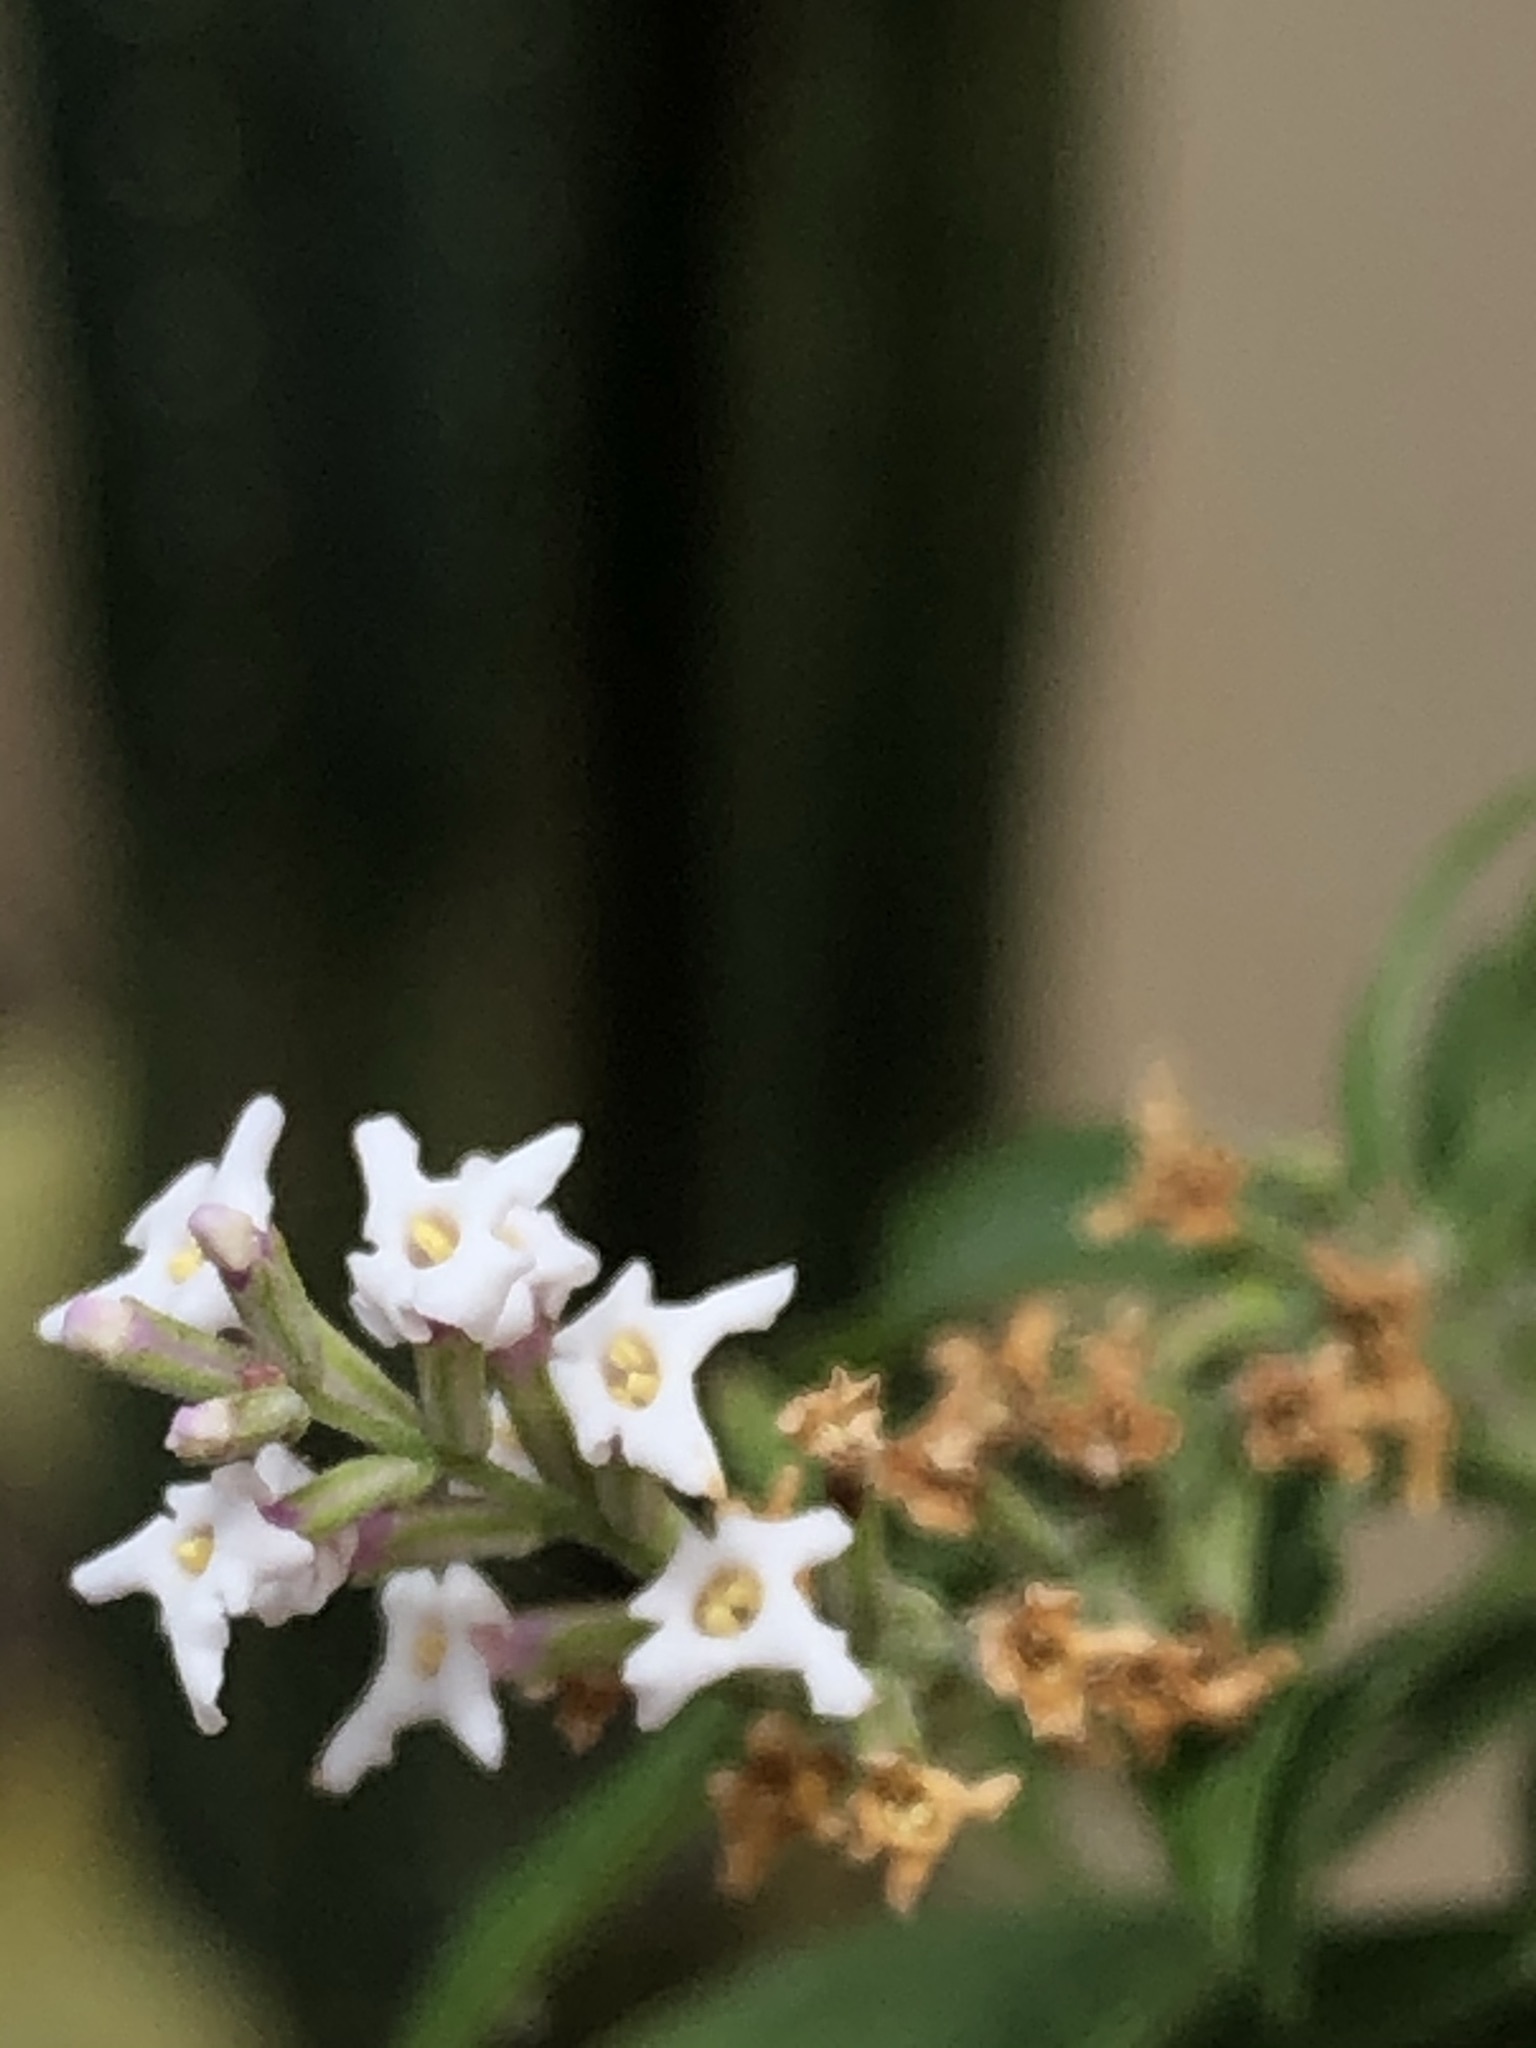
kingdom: Plantae
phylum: Tracheophyta
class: Magnoliopsida
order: Lamiales
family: Verbenaceae
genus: Aloysia
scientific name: Aloysia citrodora
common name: Lemon beebrush
